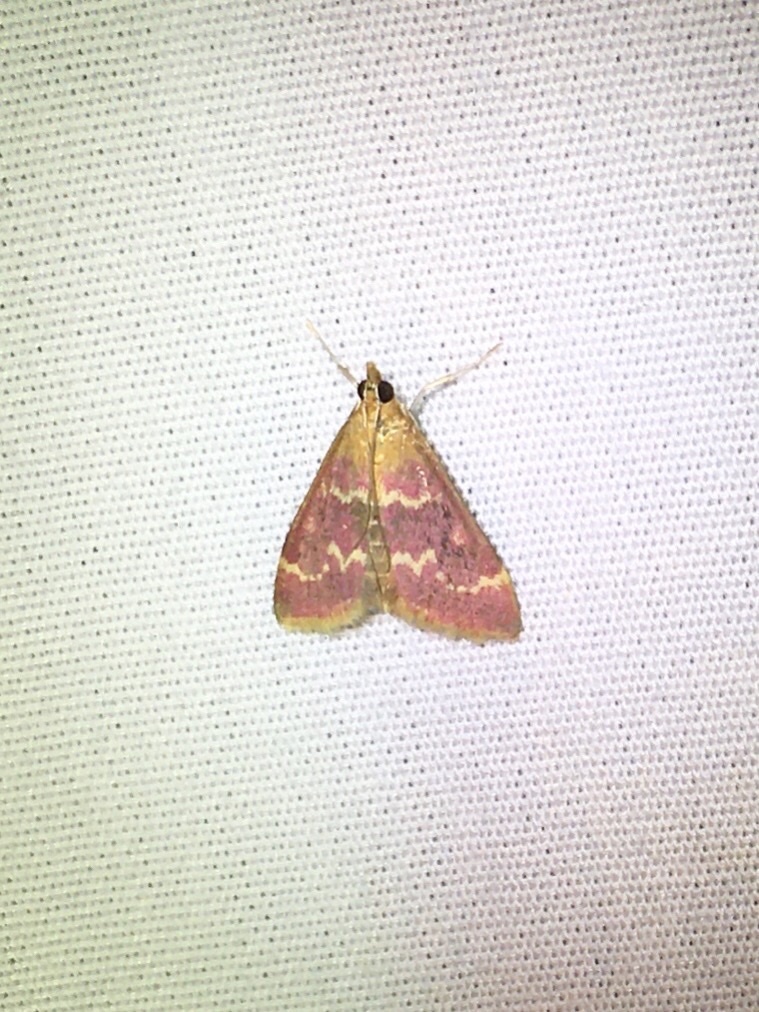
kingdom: Animalia
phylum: Arthropoda
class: Insecta
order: Lepidoptera
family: Crambidae
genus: Pyrausta
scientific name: Pyrausta signatalis
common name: Raspberry pyrausta moth
